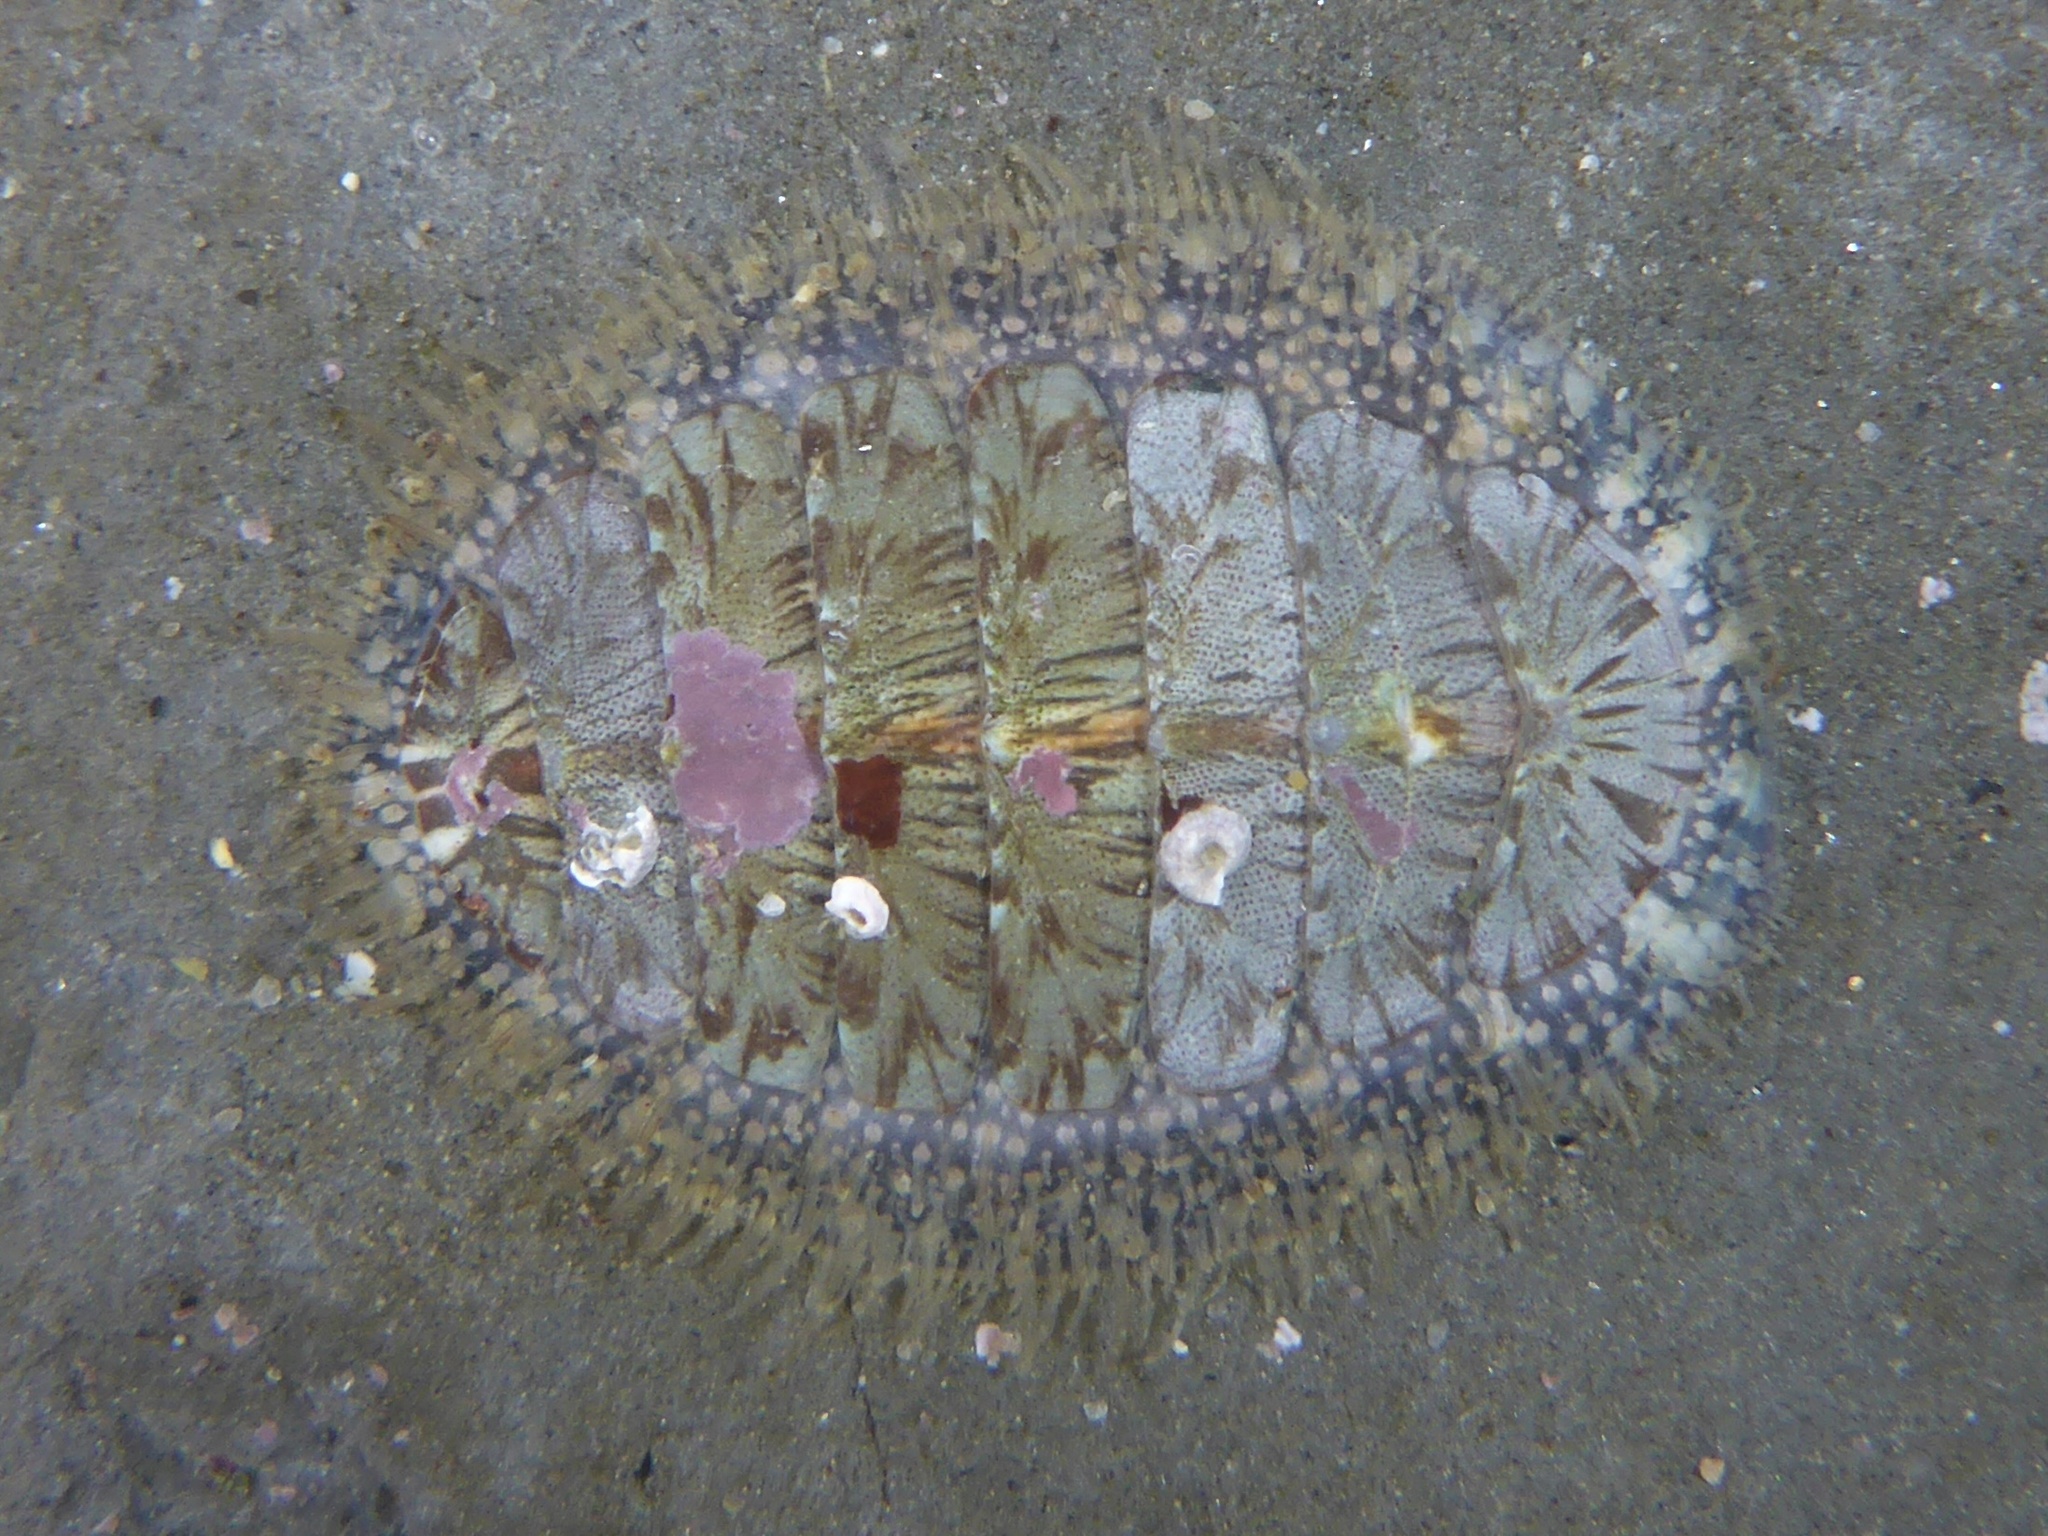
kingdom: Animalia
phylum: Mollusca
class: Polyplacophora
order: Chitonida
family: Mopaliidae
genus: Mopalia
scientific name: Mopalia lignosa
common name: Woody chiton
